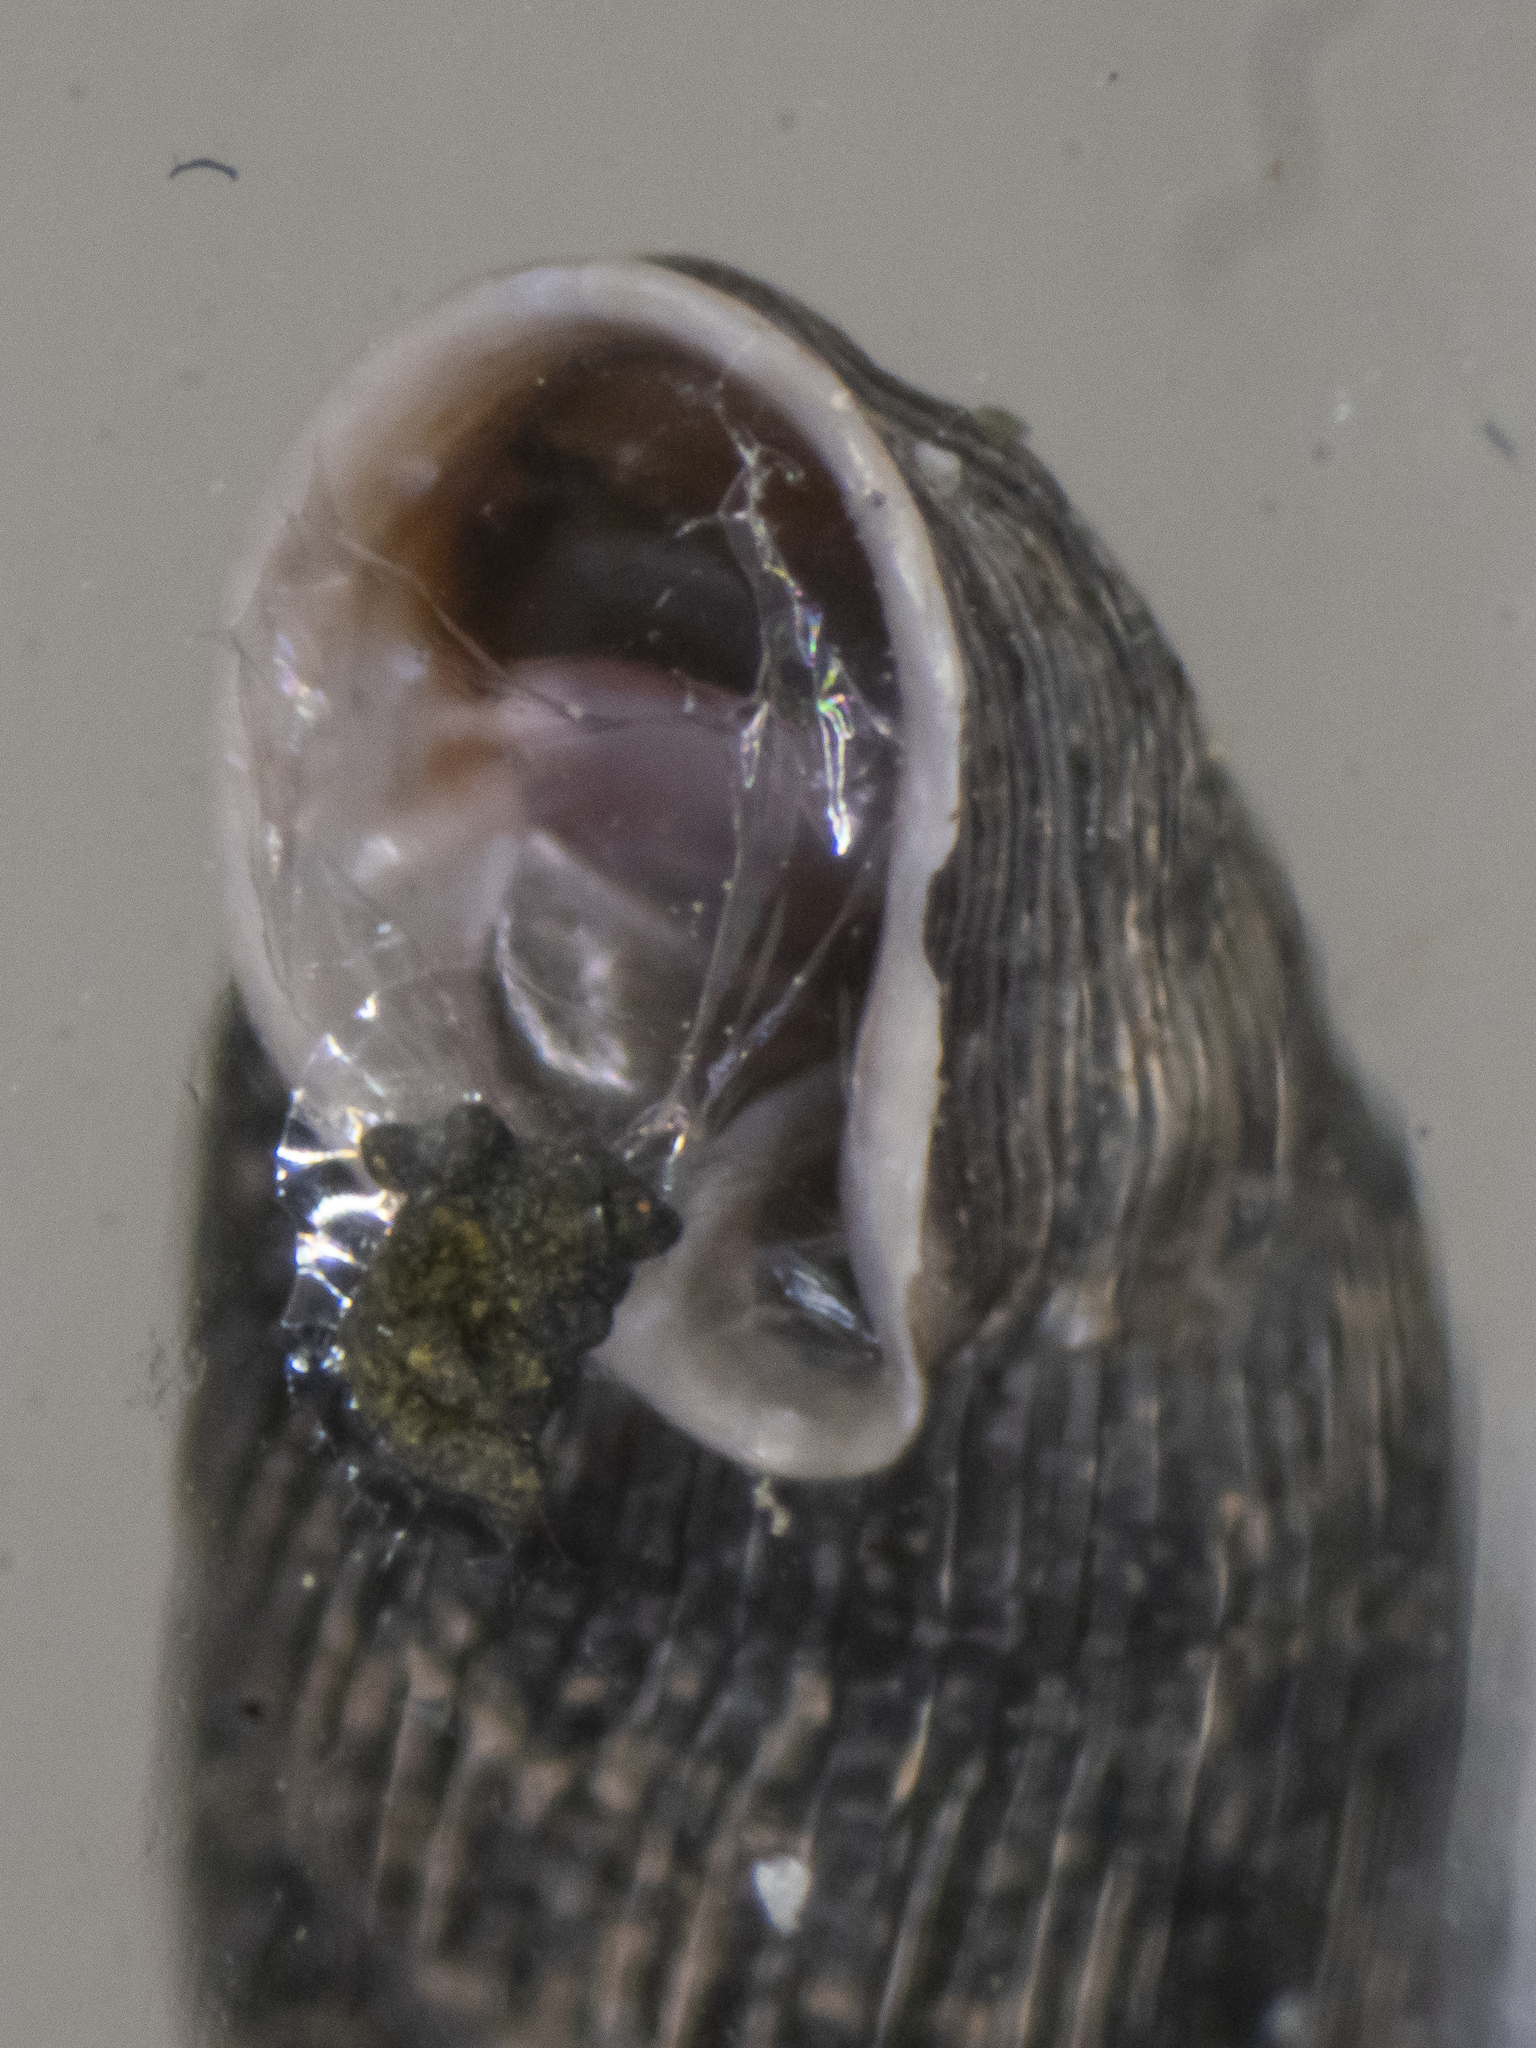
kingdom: Animalia
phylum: Mollusca
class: Gastropoda
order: Stylommatophora
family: Clausiliidae
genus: Macrogastra
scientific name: Macrogastra ventricosa
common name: Ventricose door snail
